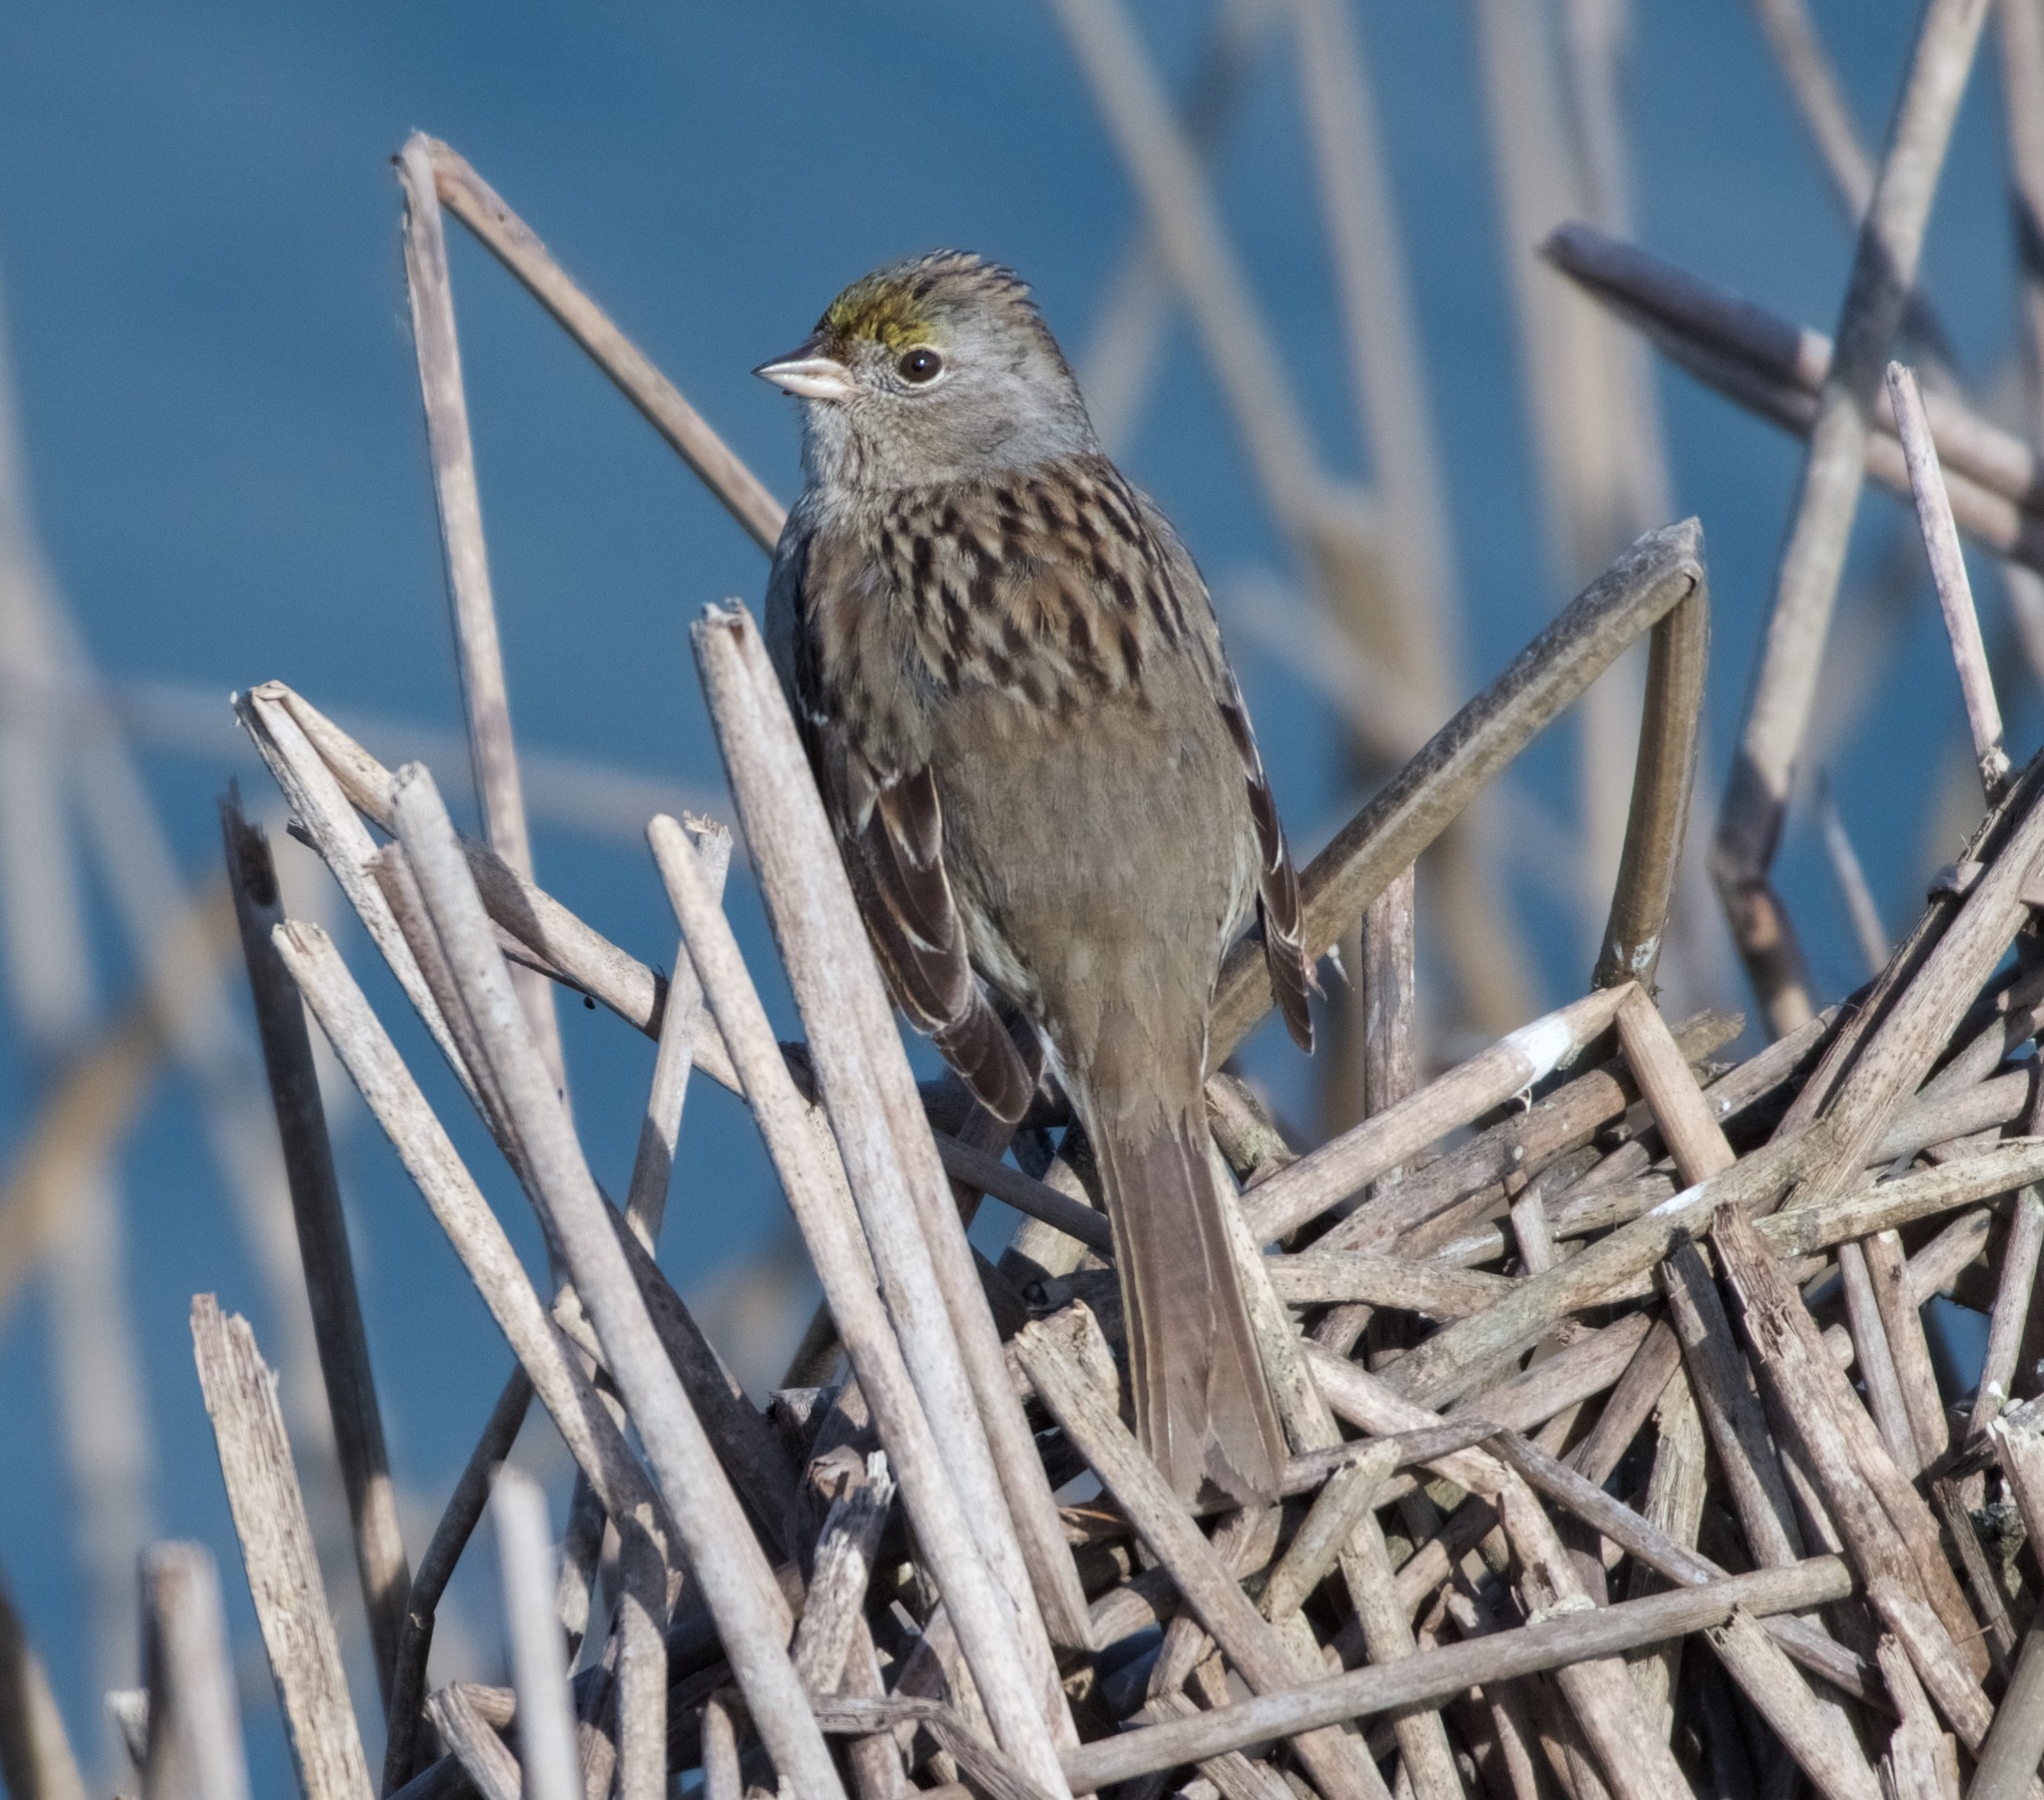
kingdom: Animalia
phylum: Chordata
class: Aves
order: Passeriformes
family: Passerellidae
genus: Zonotrichia
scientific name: Zonotrichia atricapilla
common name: Golden-crowned sparrow
